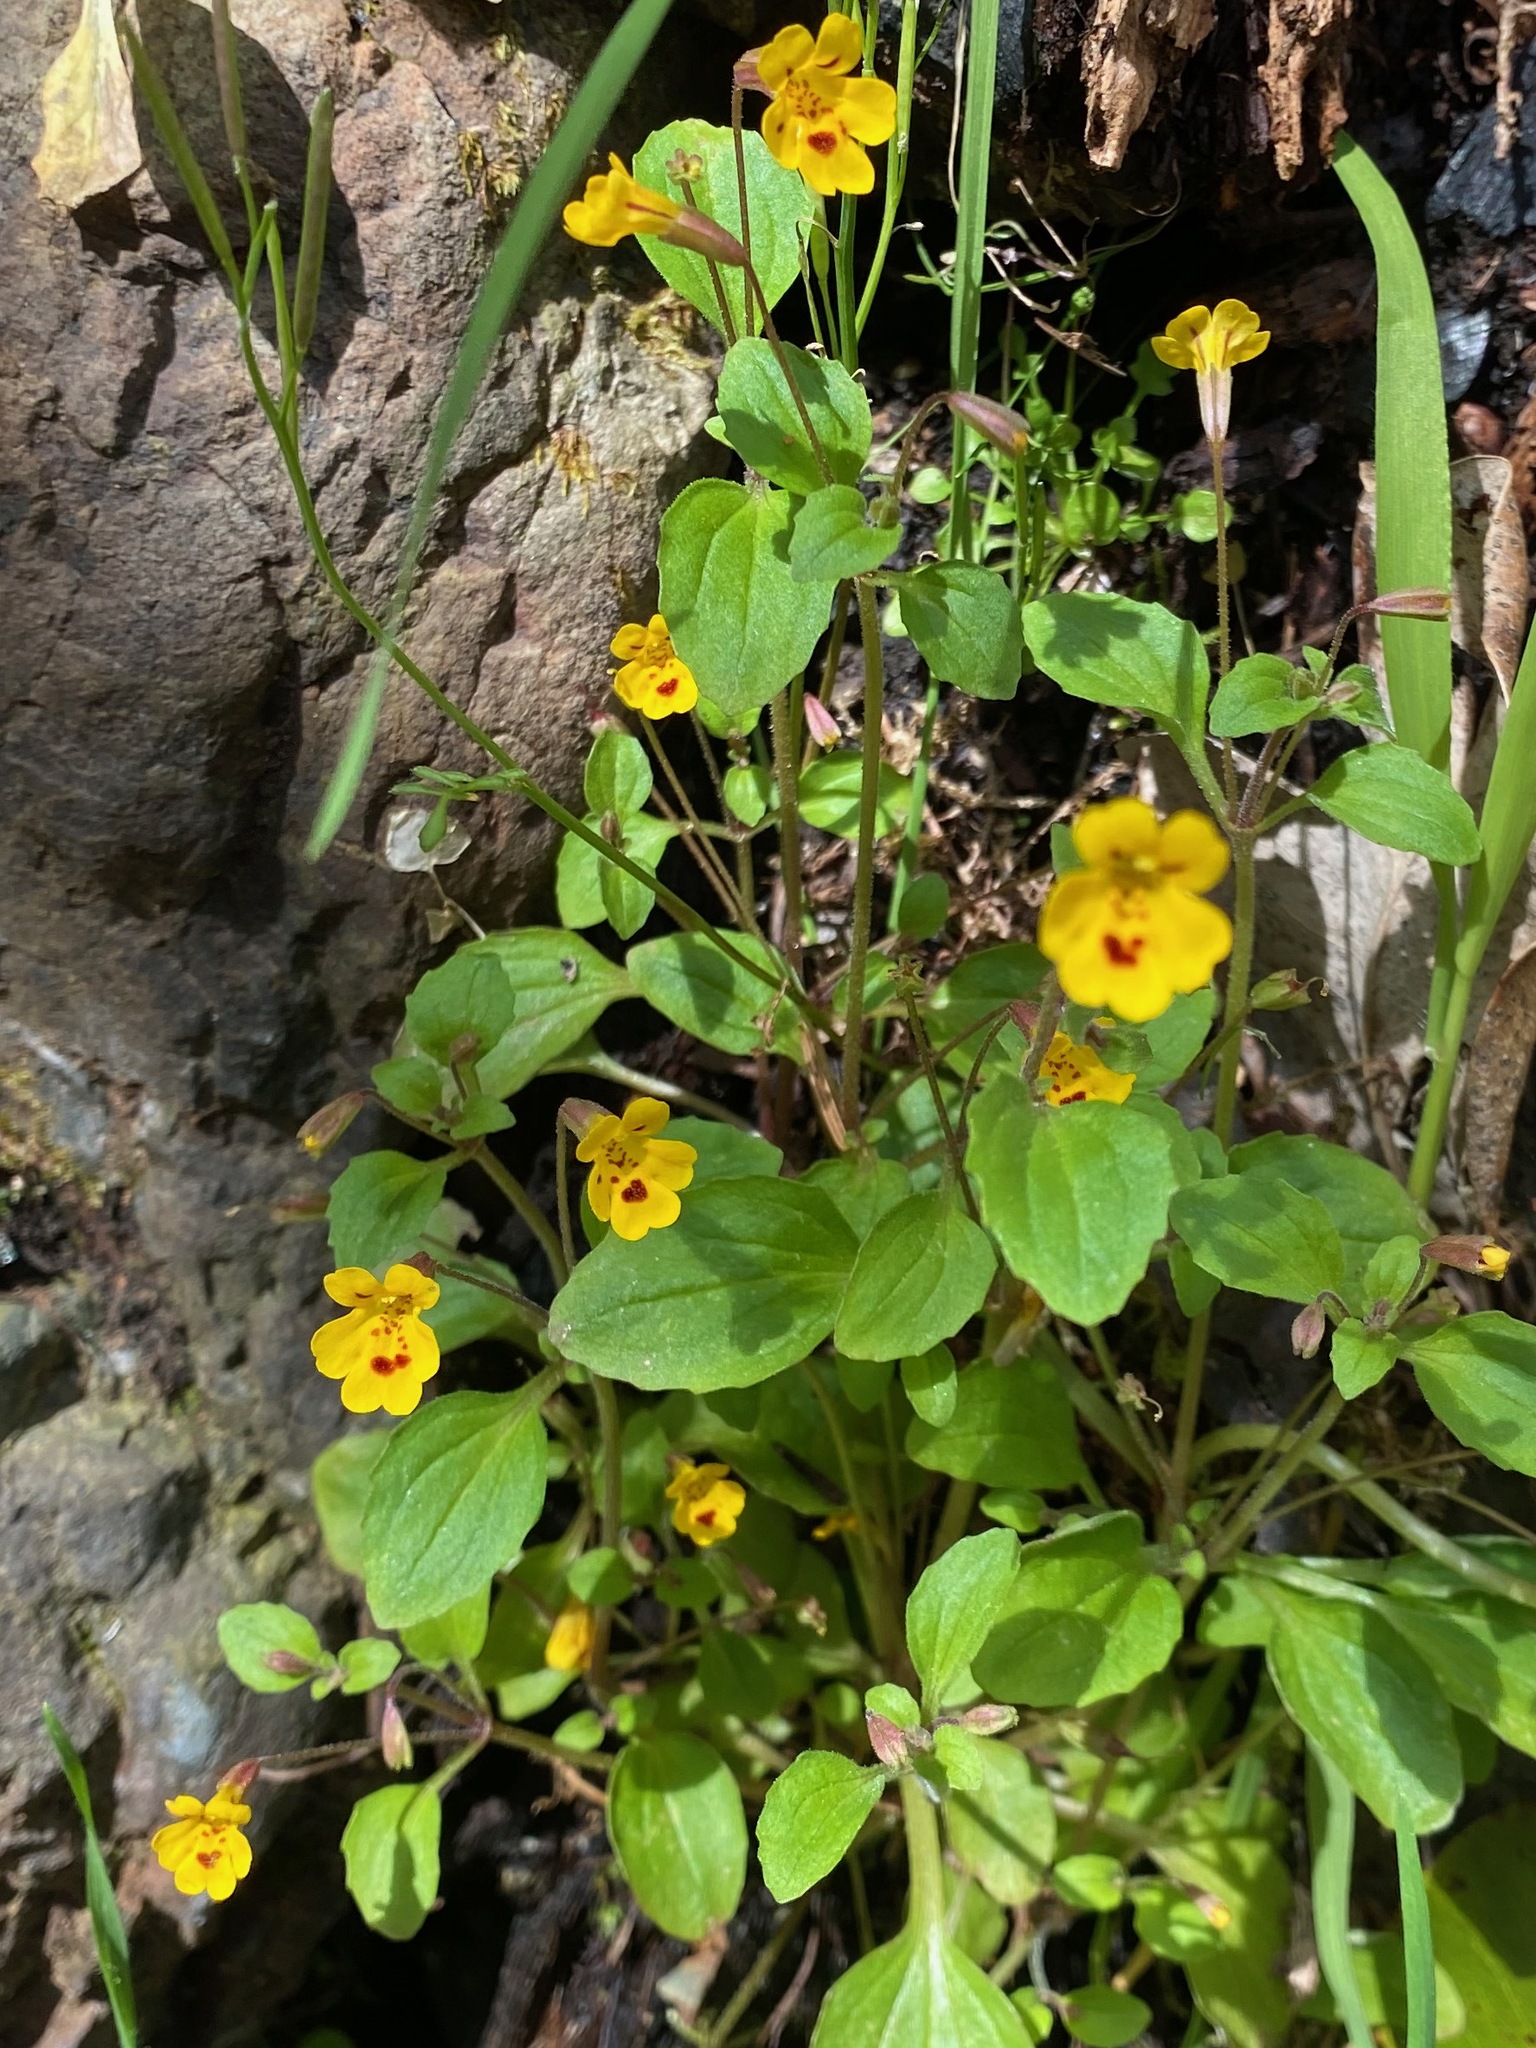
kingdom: Plantae
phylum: Tracheophyta
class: Magnoliopsida
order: Lamiales
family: Phrymaceae
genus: Erythranthe
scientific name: Erythranthe alsinoides
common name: Chickweed monkeyflower
